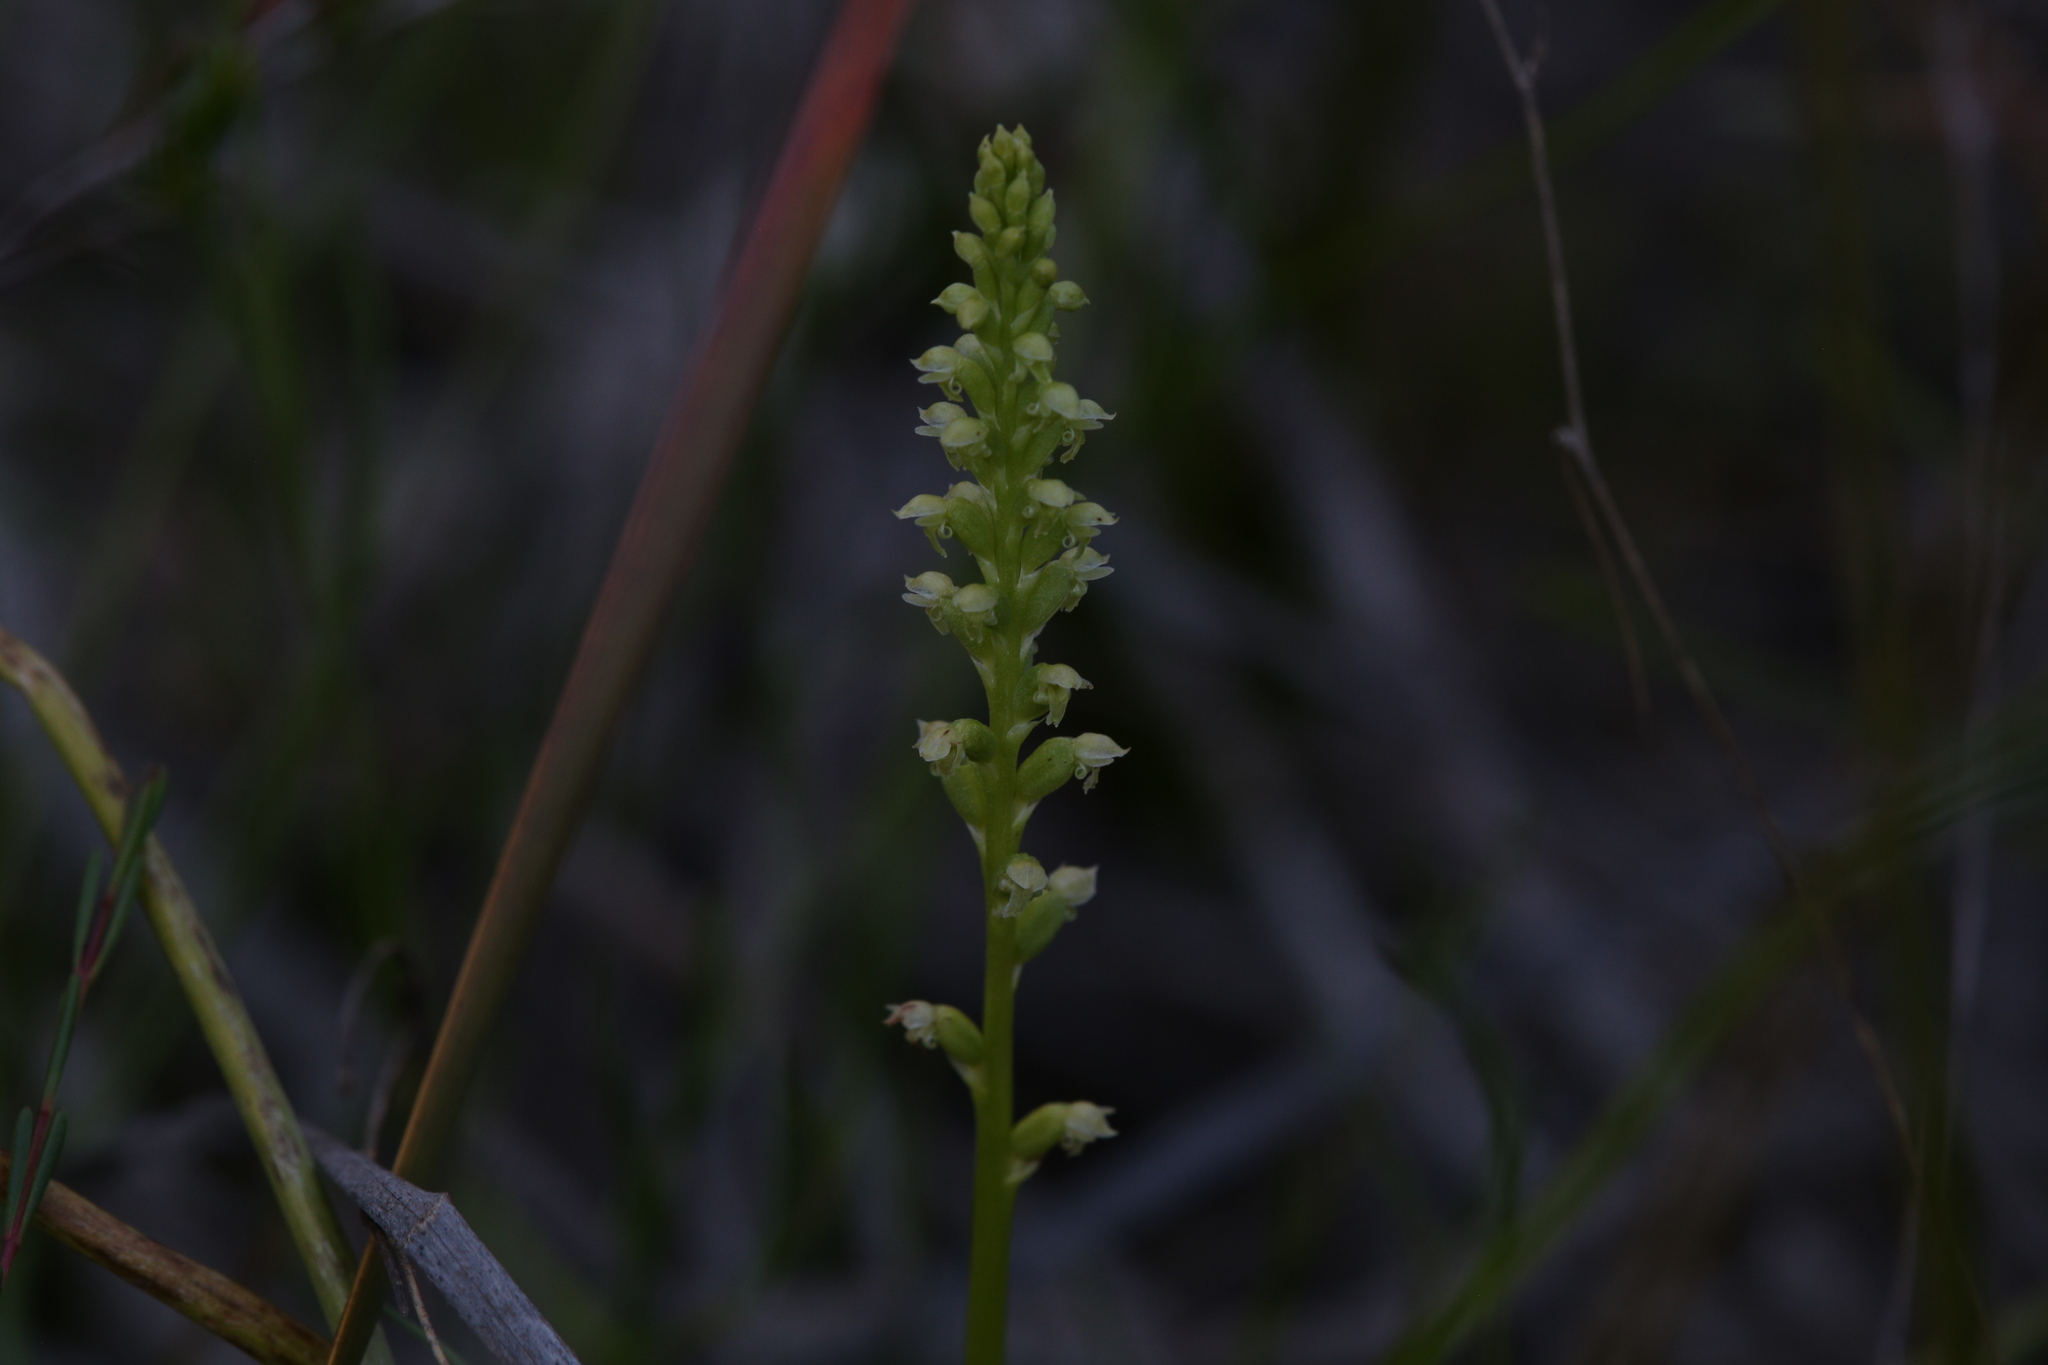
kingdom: Plantae
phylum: Tracheophyta
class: Liliopsida
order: Asparagales
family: Orchidaceae
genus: Microtis
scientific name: Microtis media
